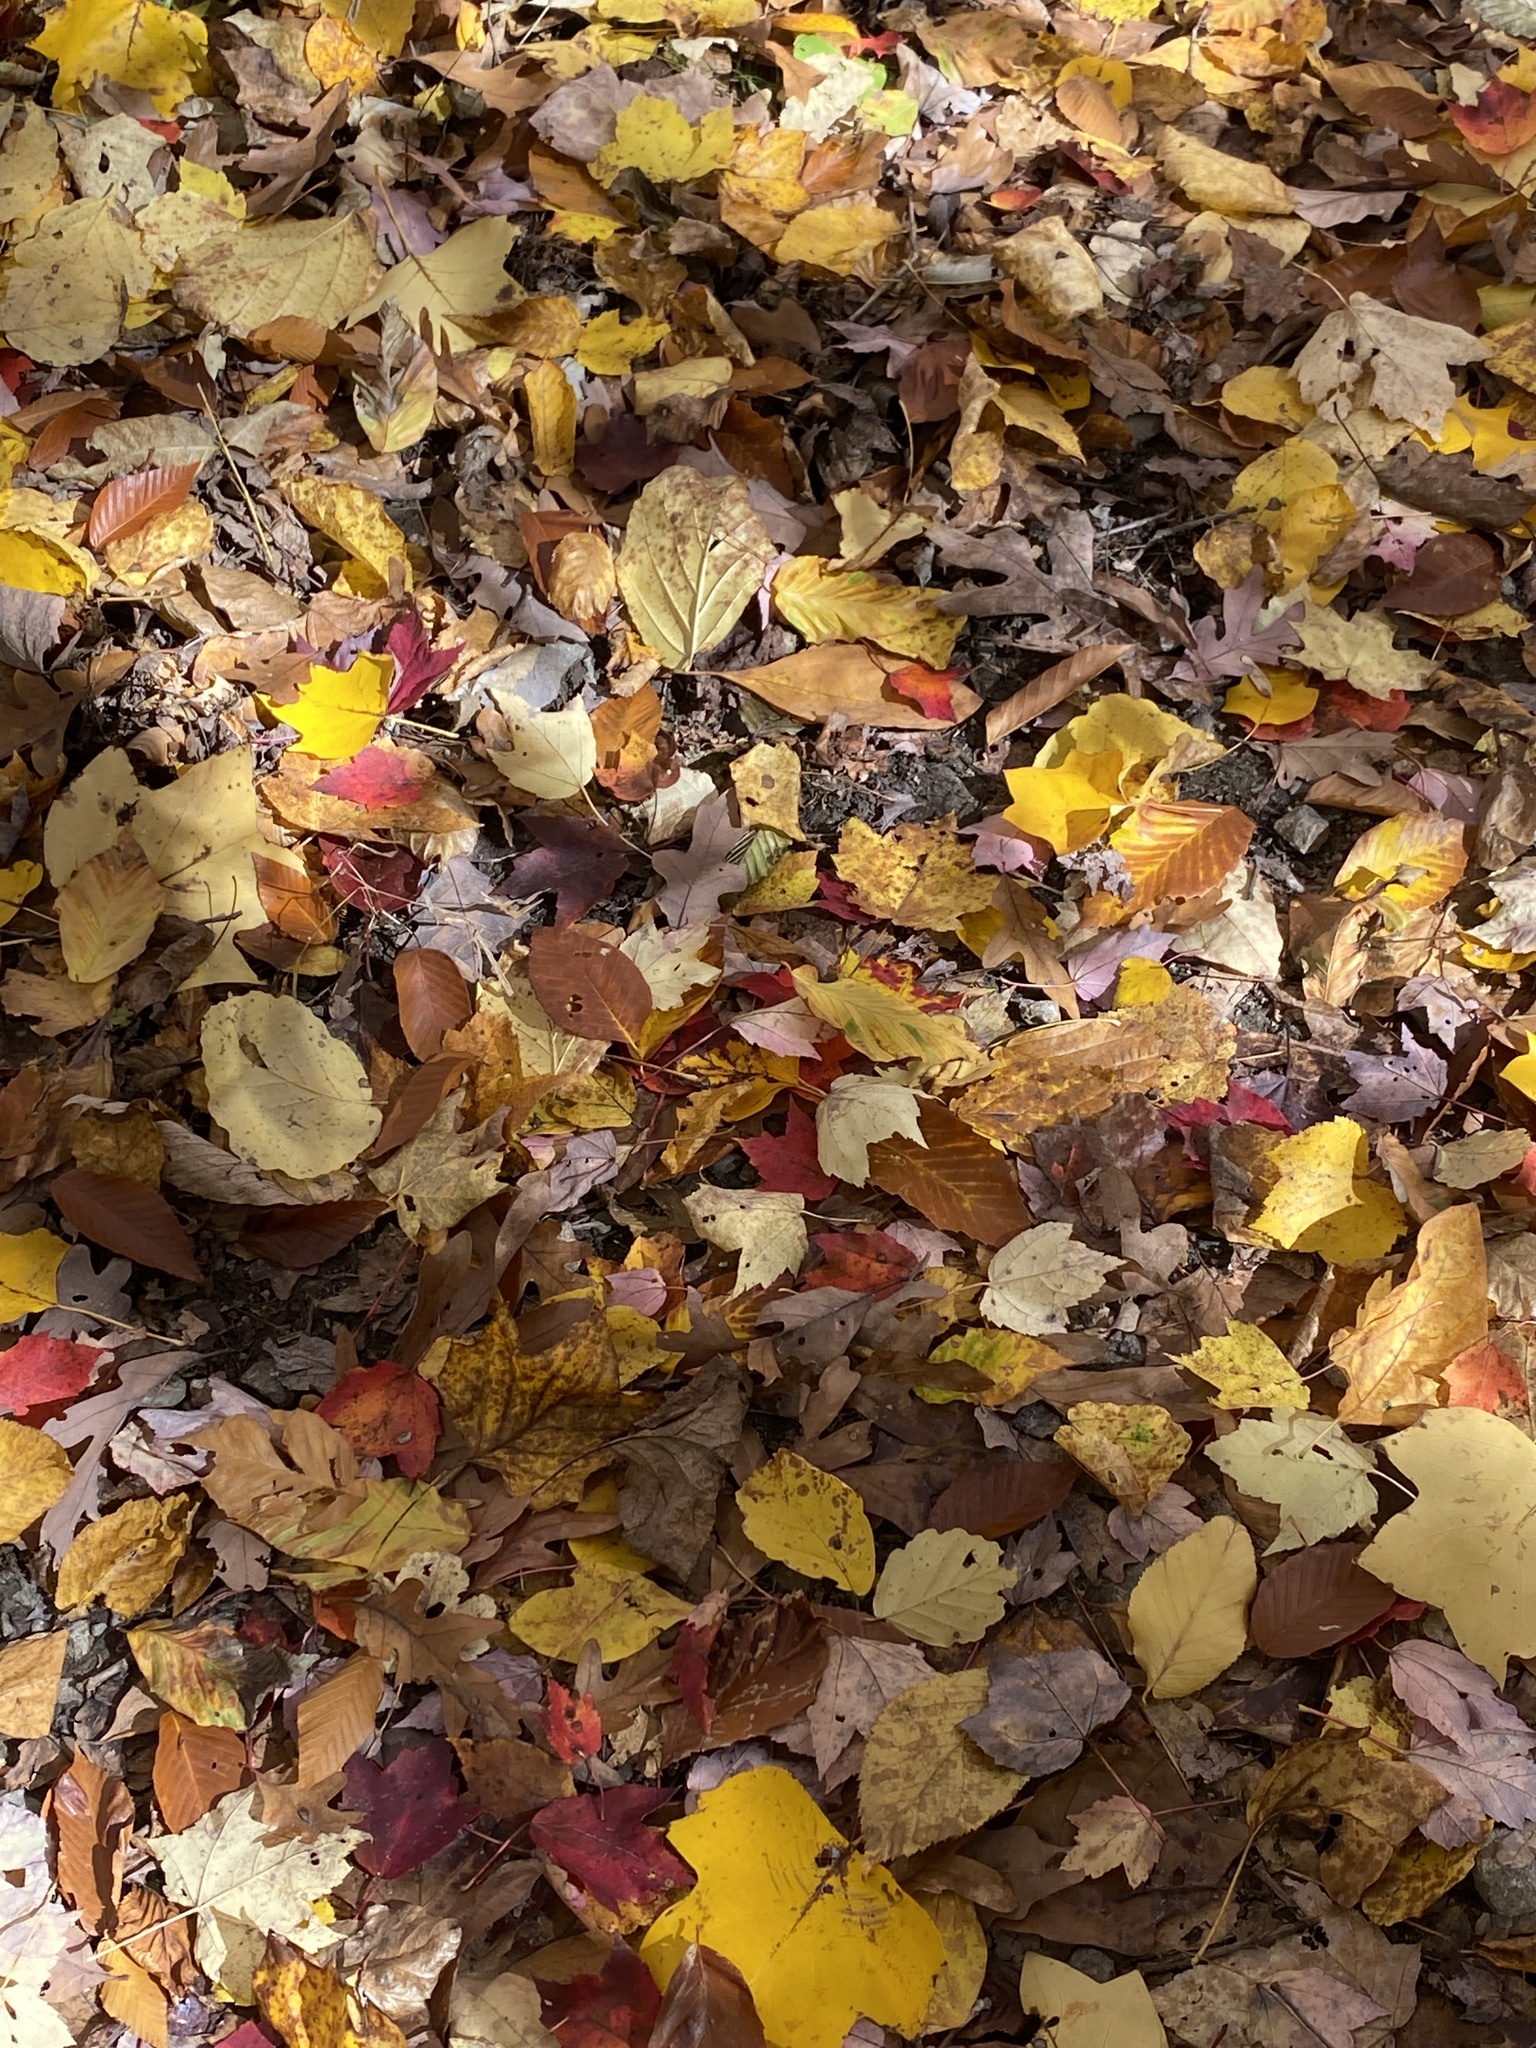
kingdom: Plantae
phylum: Tracheophyta
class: Magnoliopsida
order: Rosales
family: Rosaceae
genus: Prunus
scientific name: Prunus serotina
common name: Black cherry
